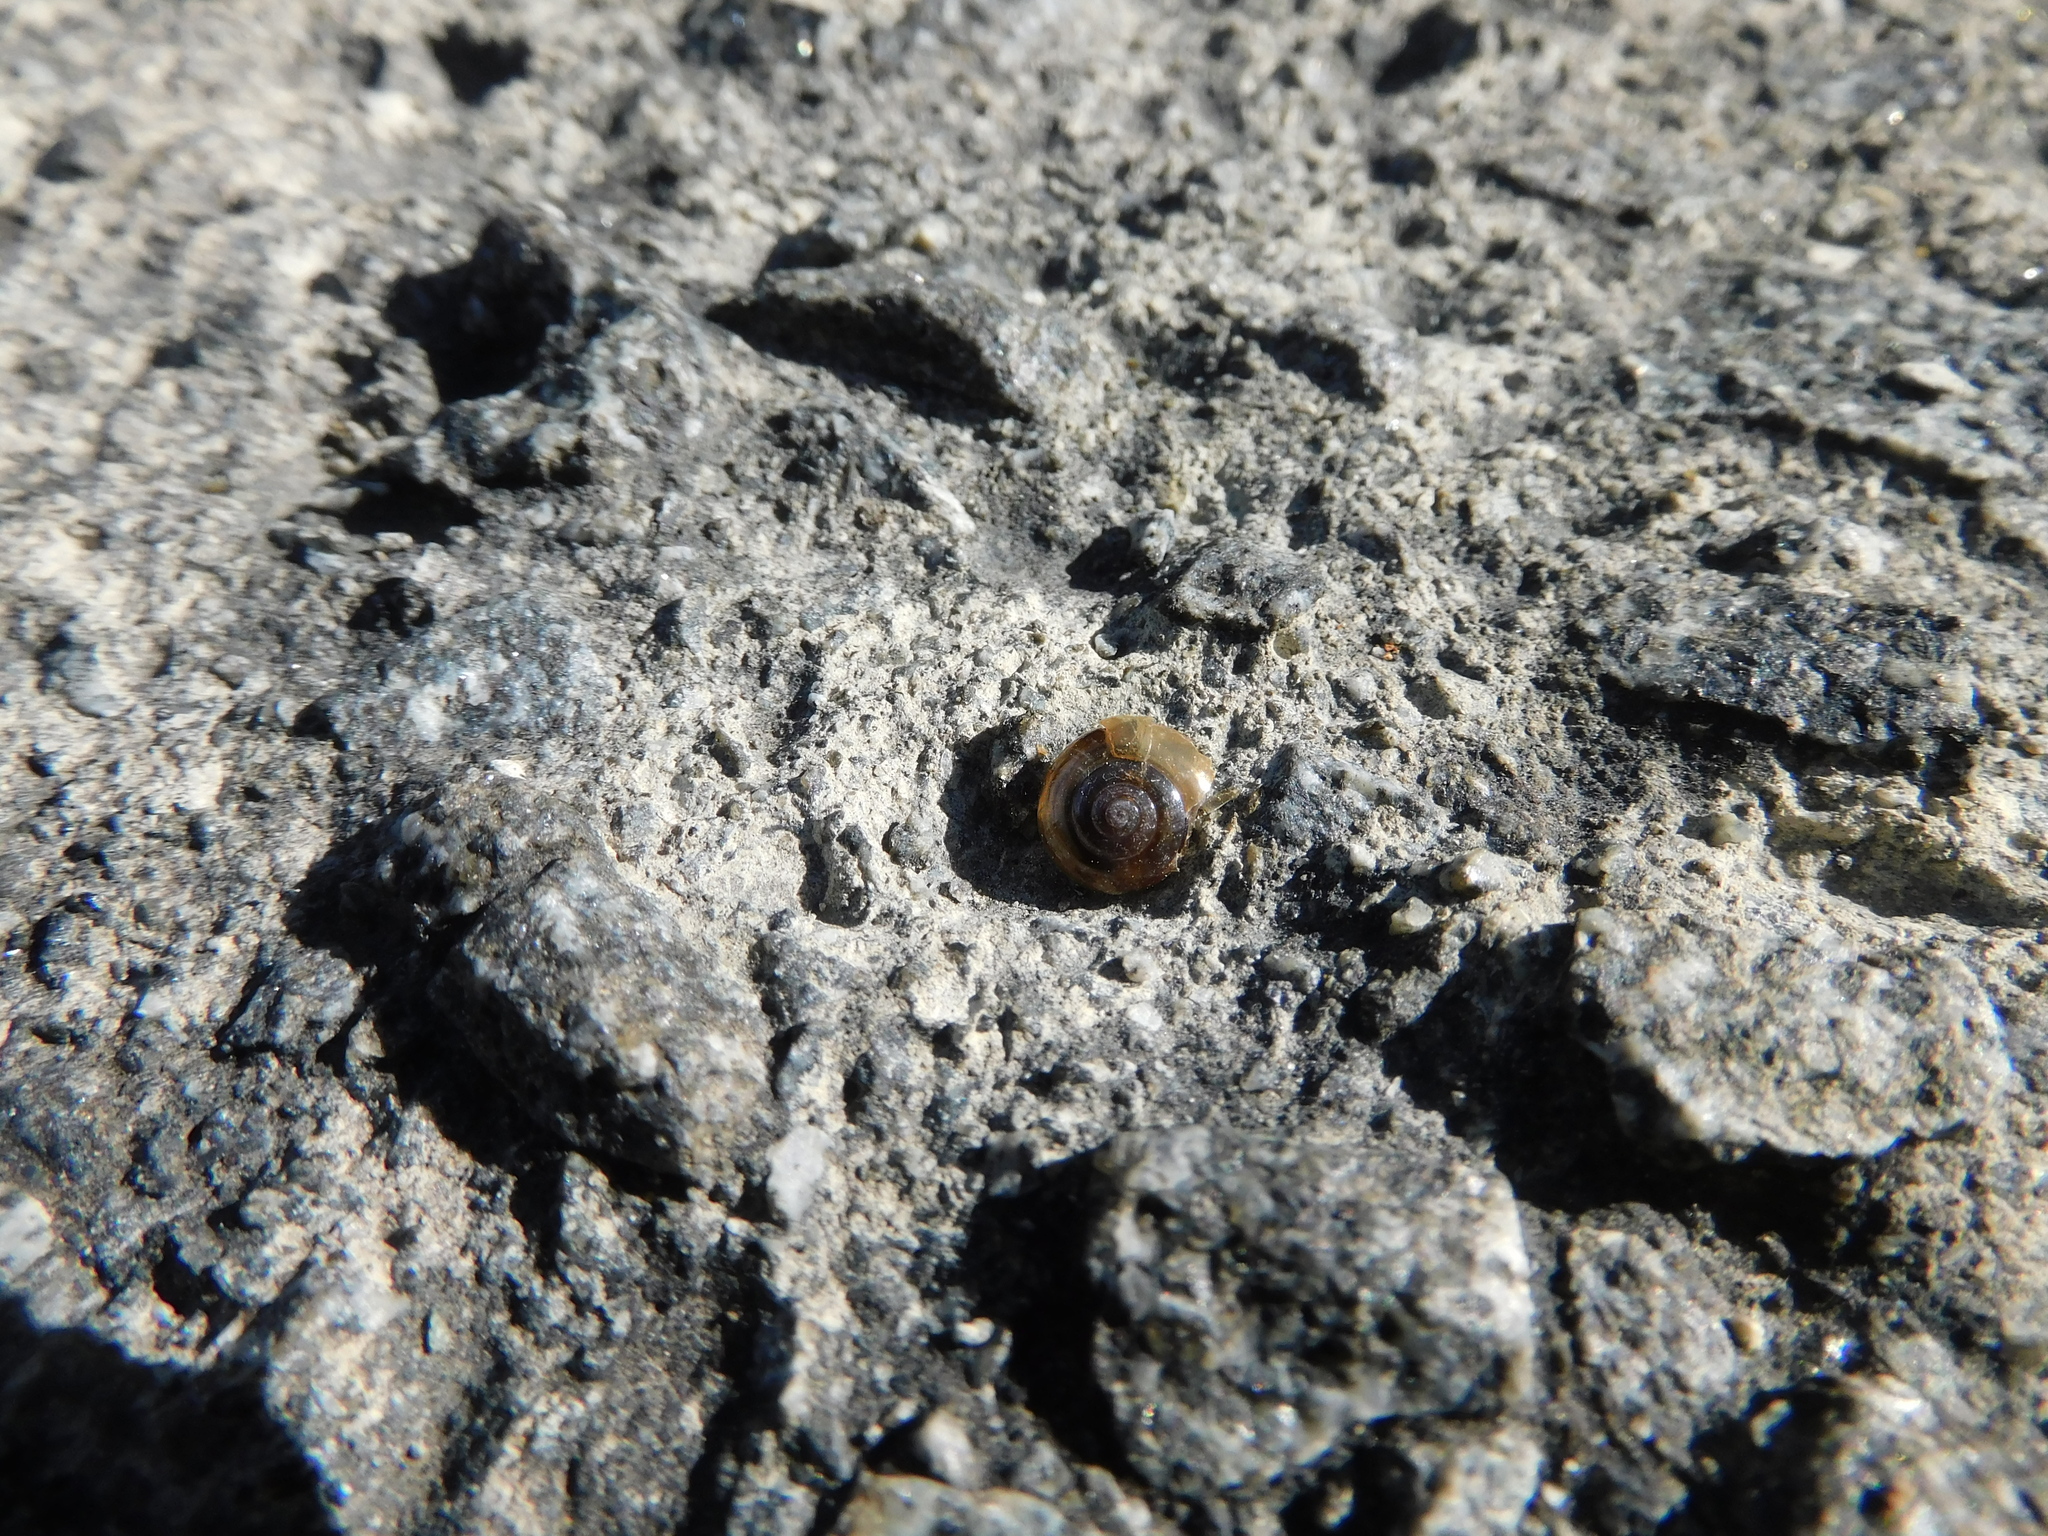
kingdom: Animalia
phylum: Mollusca
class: Gastropoda
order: Stylommatophora
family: Oxychilidae
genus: Oxychilus
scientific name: Oxychilus alliarius
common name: Garlic glass-snail
